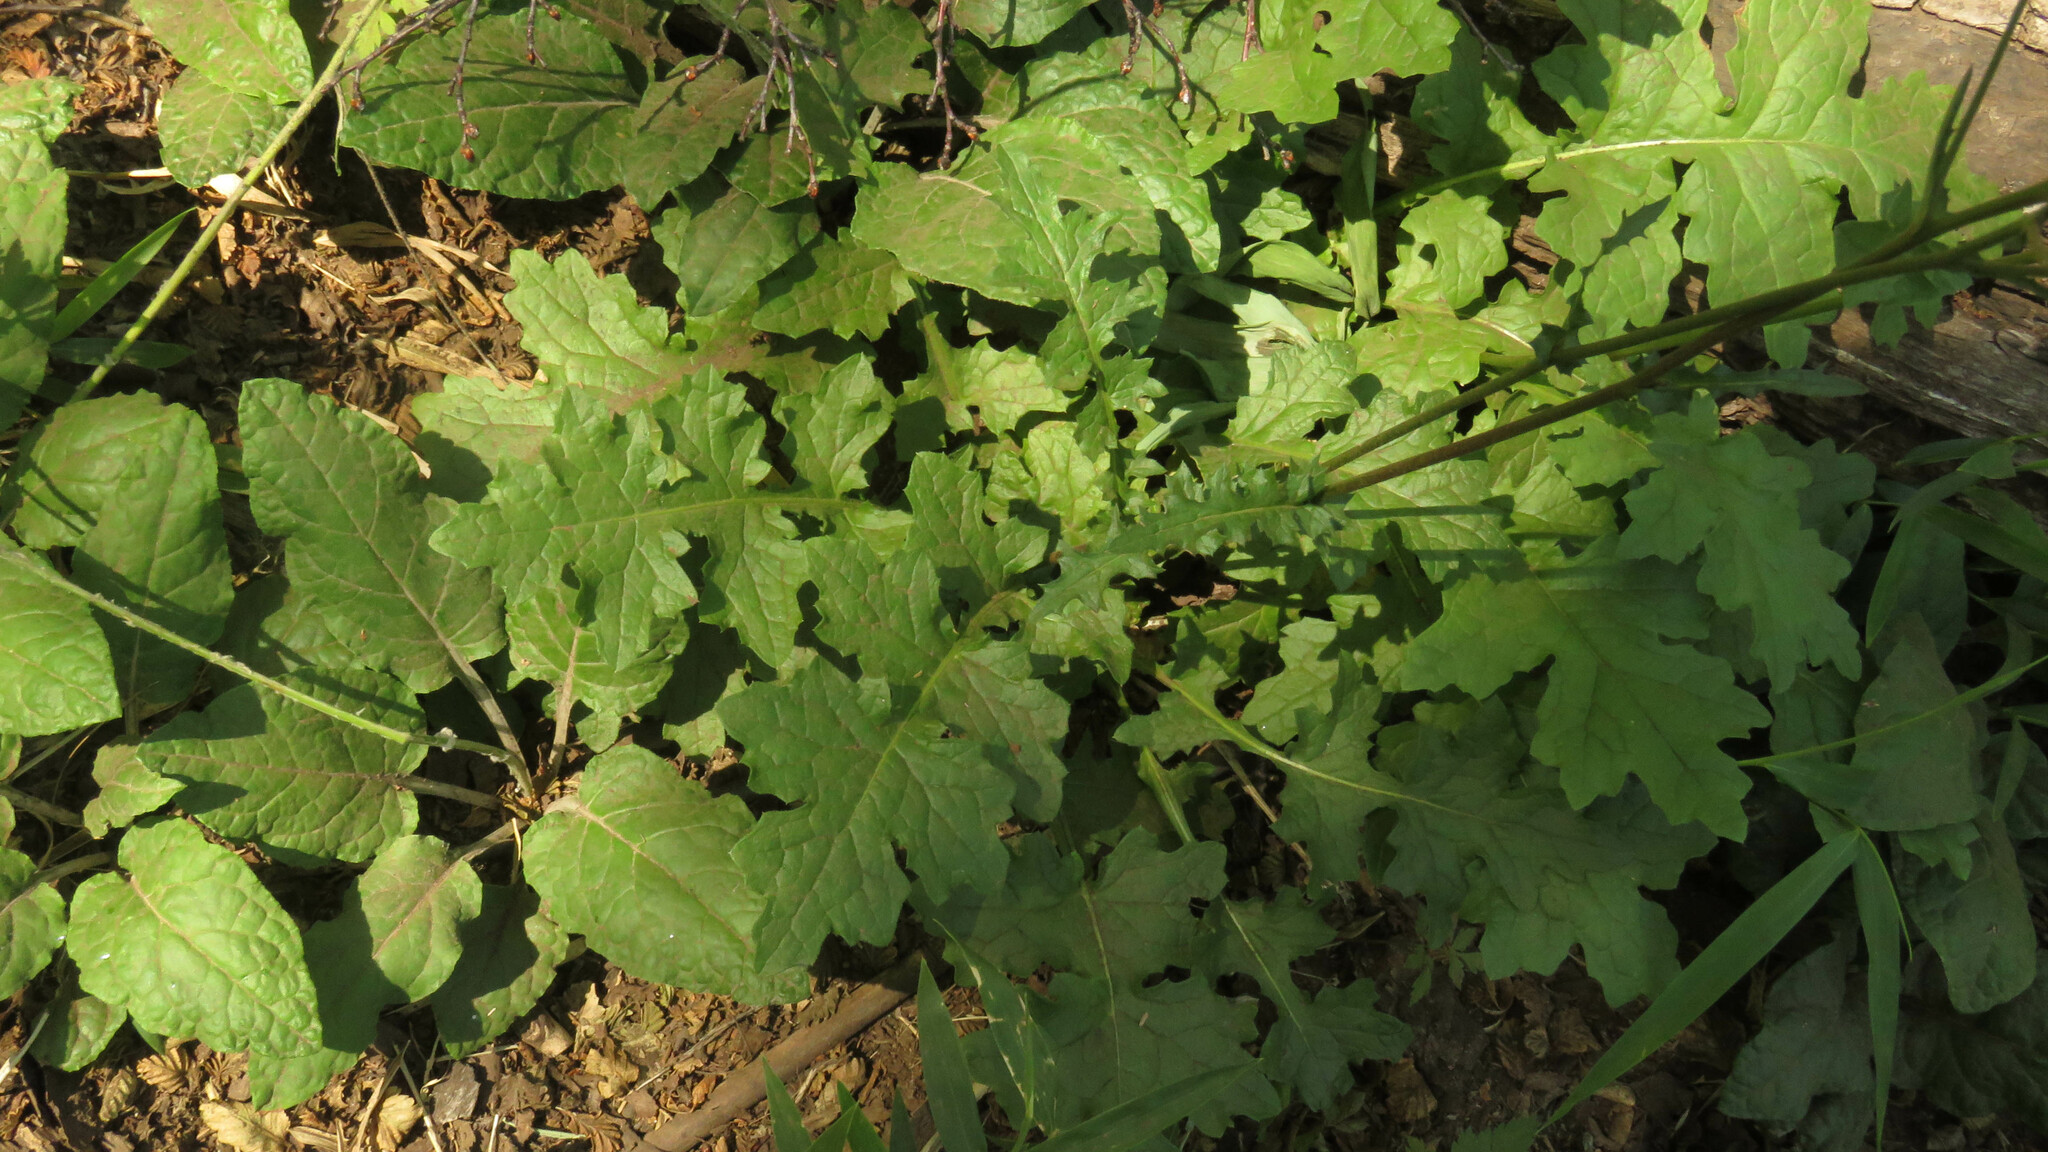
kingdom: Plantae
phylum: Tracheophyta
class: Magnoliopsida
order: Asterales
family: Asteraceae
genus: Perezia
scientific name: Perezia prenanthoides
